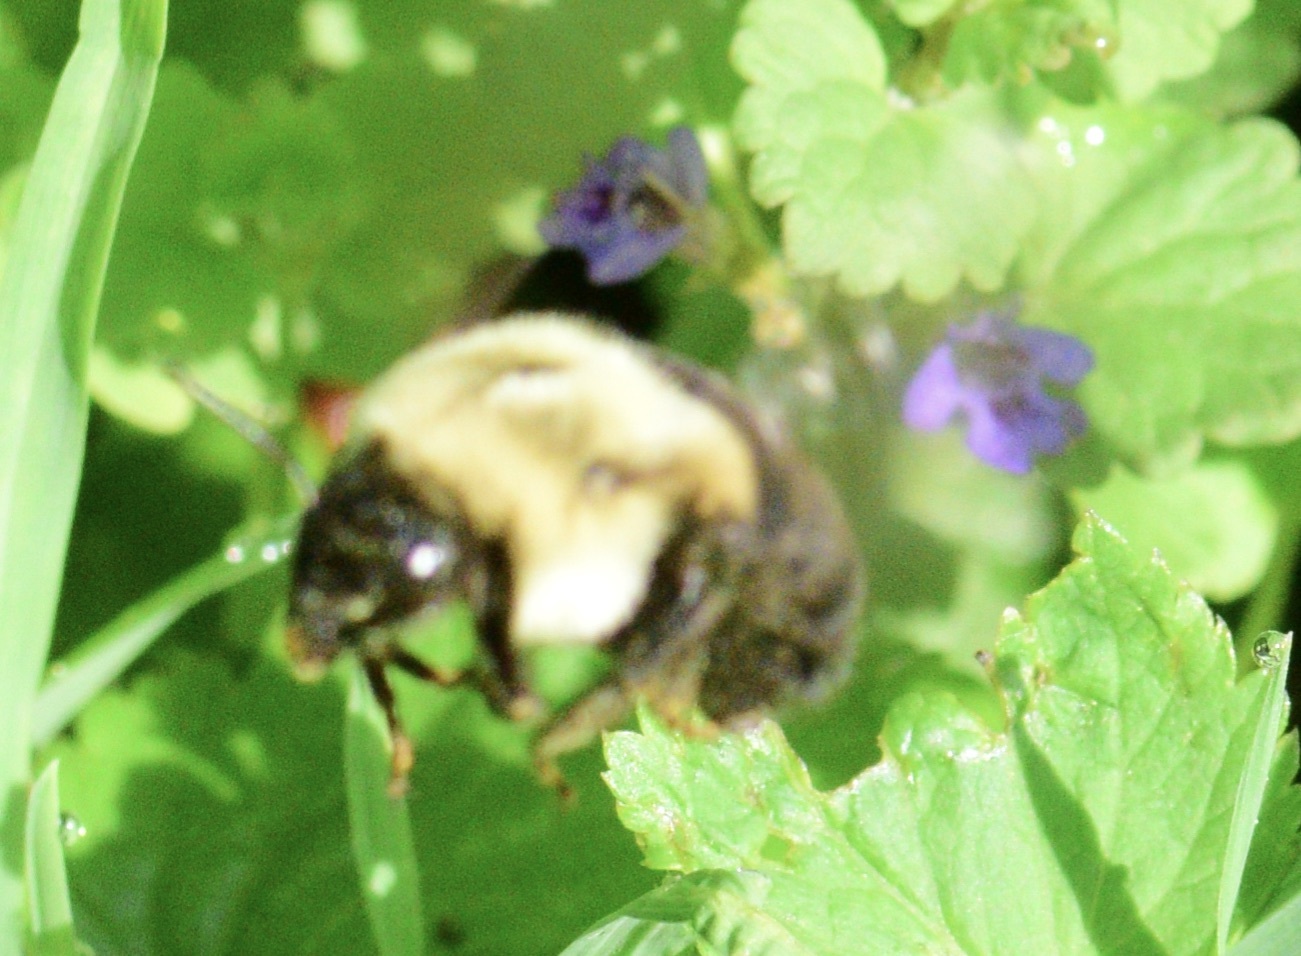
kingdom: Animalia
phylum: Arthropoda
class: Insecta
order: Hymenoptera
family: Apidae
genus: Bombus
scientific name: Bombus impatiens
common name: Common eastern bumble bee
